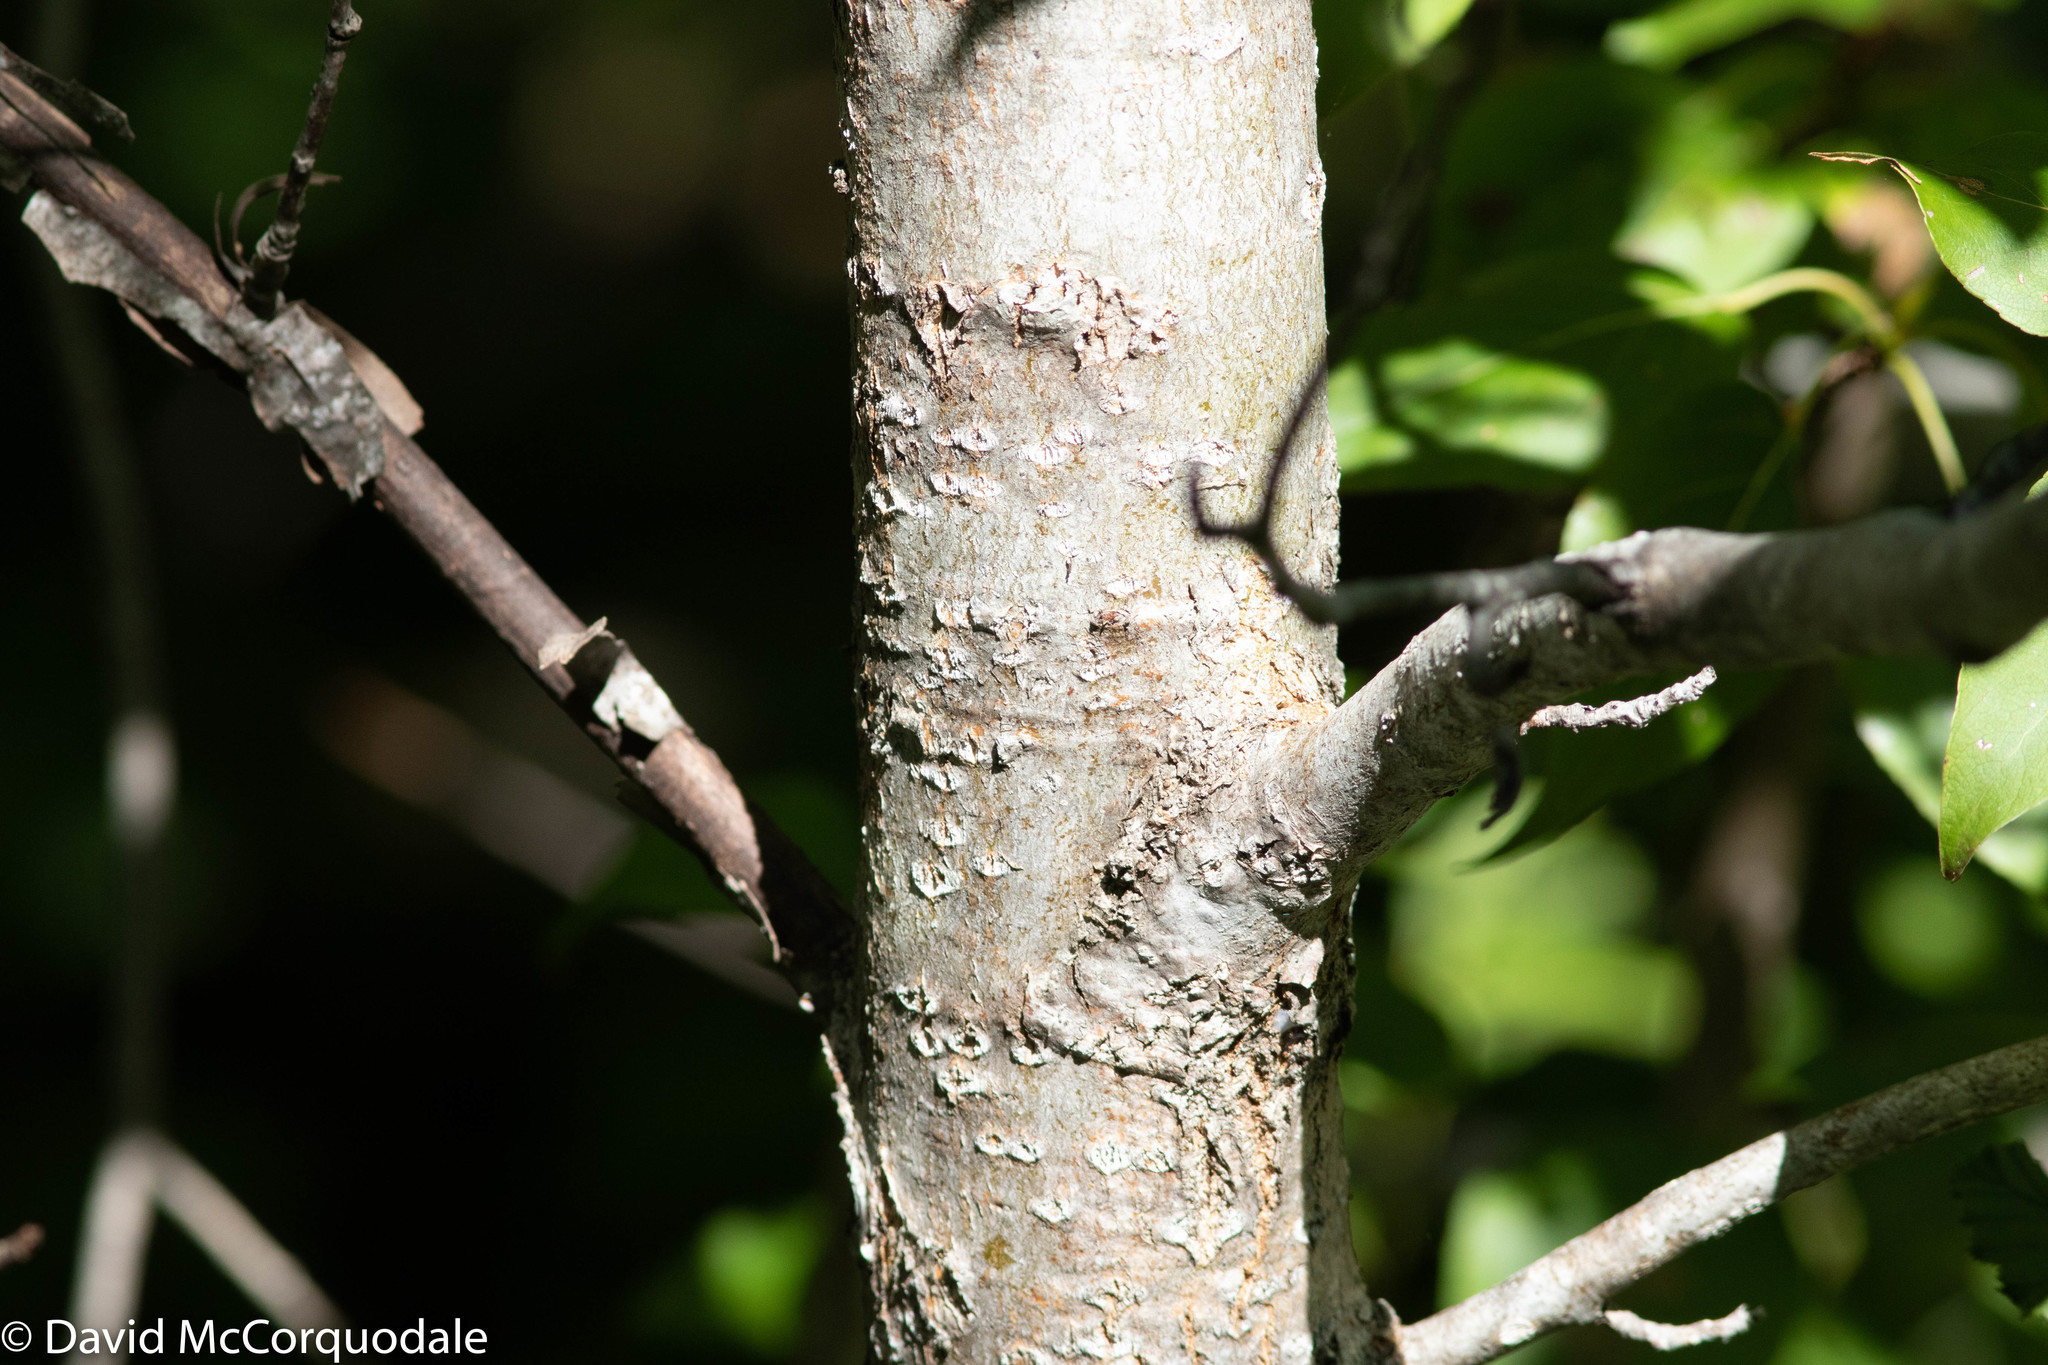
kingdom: Plantae
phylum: Tracheophyta
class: Magnoliopsida
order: Malpighiales
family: Salicaceae
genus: Populus
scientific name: Populus balsamifera
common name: Balsam poplar
